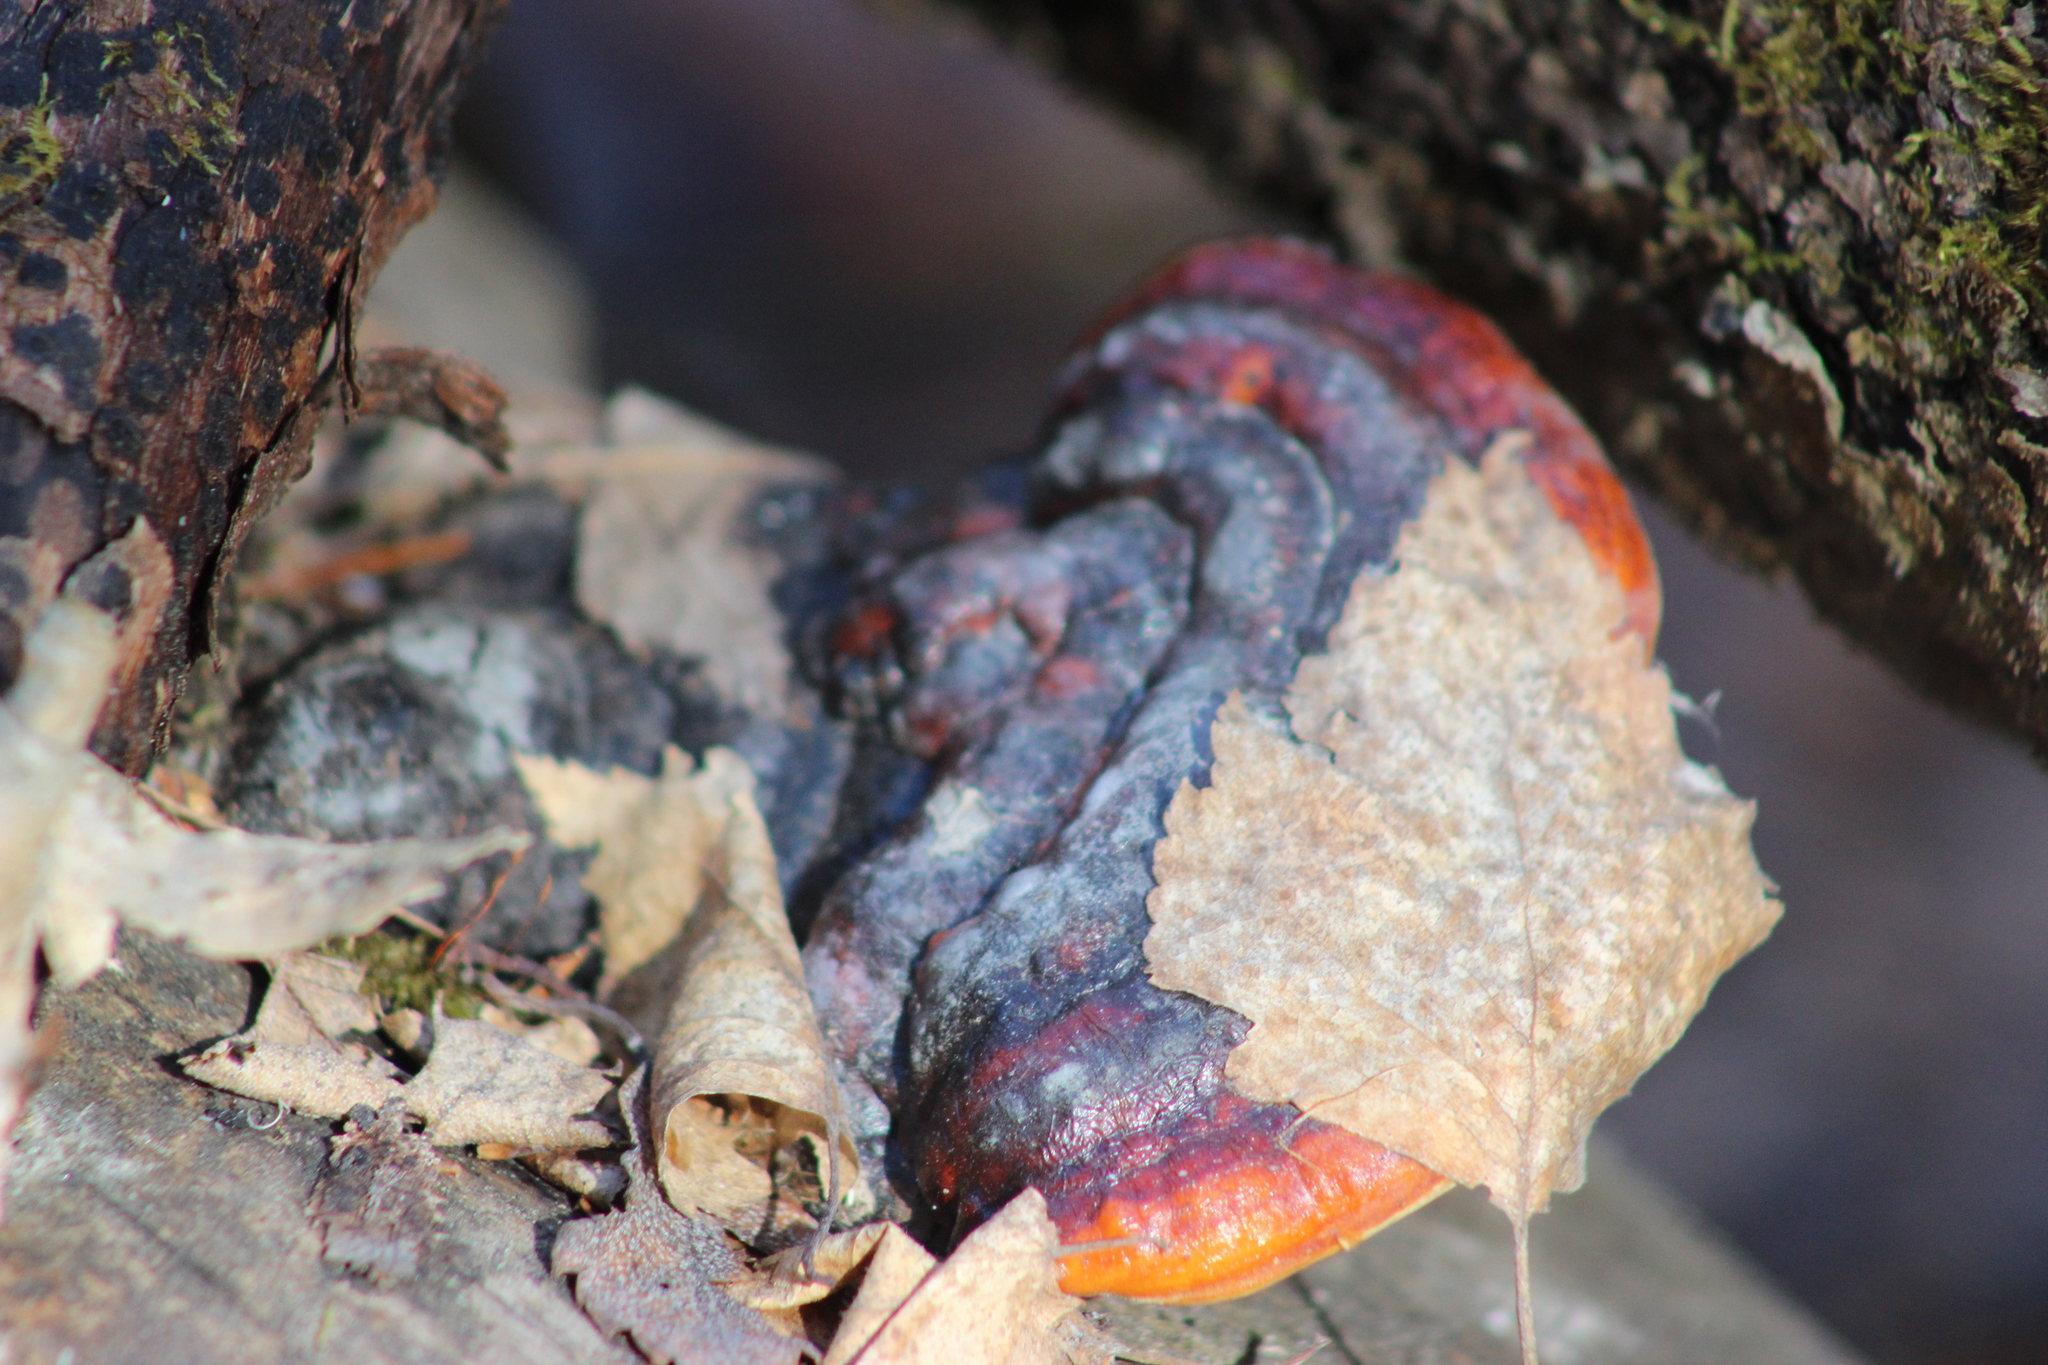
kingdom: Fungi
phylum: Basidiomycota
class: Agaricomycetes
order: Polyporales
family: Fomitopsidaceae
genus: Fomitopsis
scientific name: Fomitopsis pinicola
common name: Red-belted bracket
